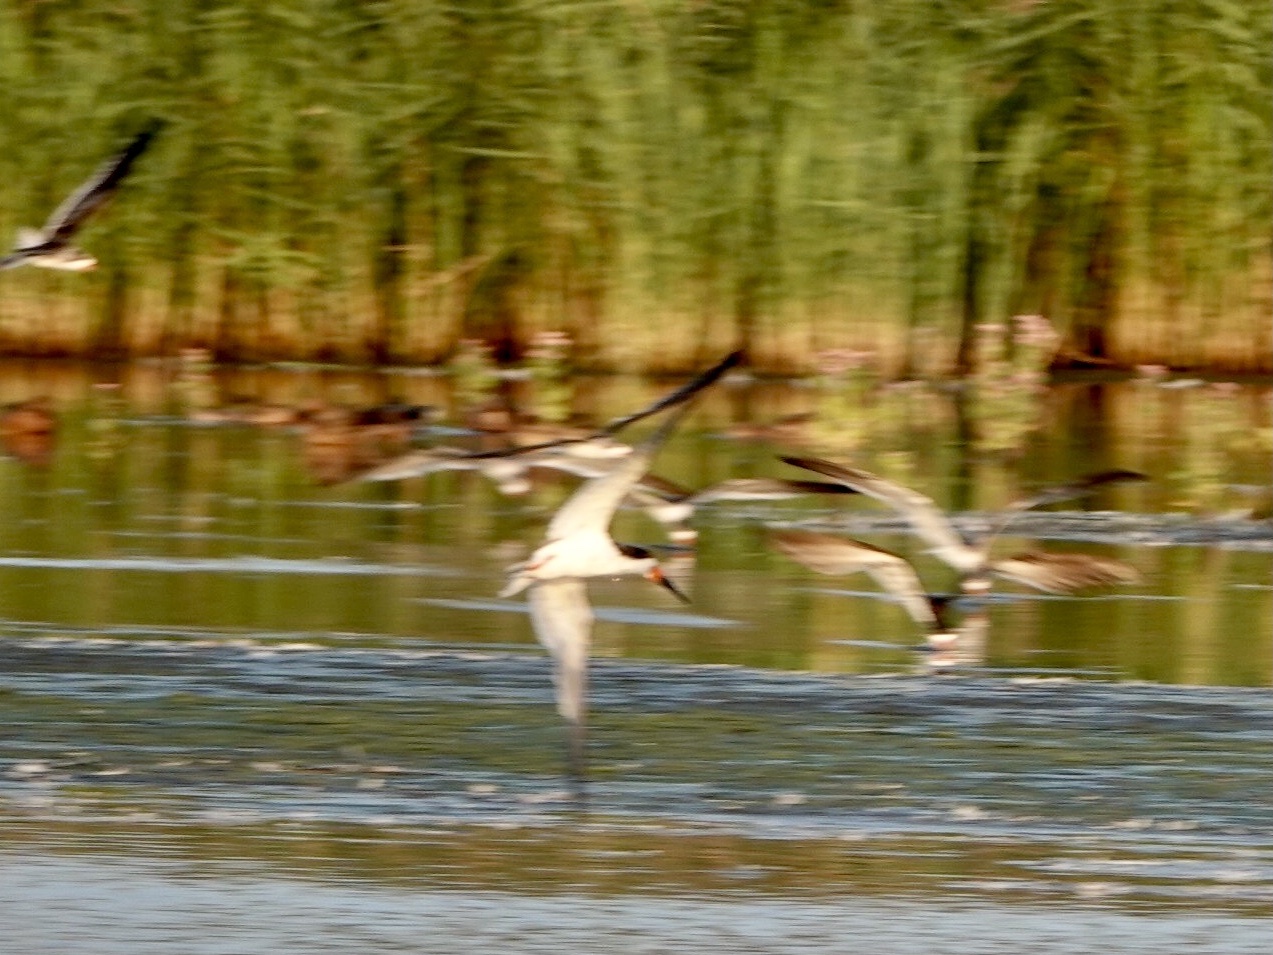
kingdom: Animalia
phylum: Chordata
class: Aves
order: Charadriiformes
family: Laridae
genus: Rynchops
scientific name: Rynchops niger
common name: Black skimmer
